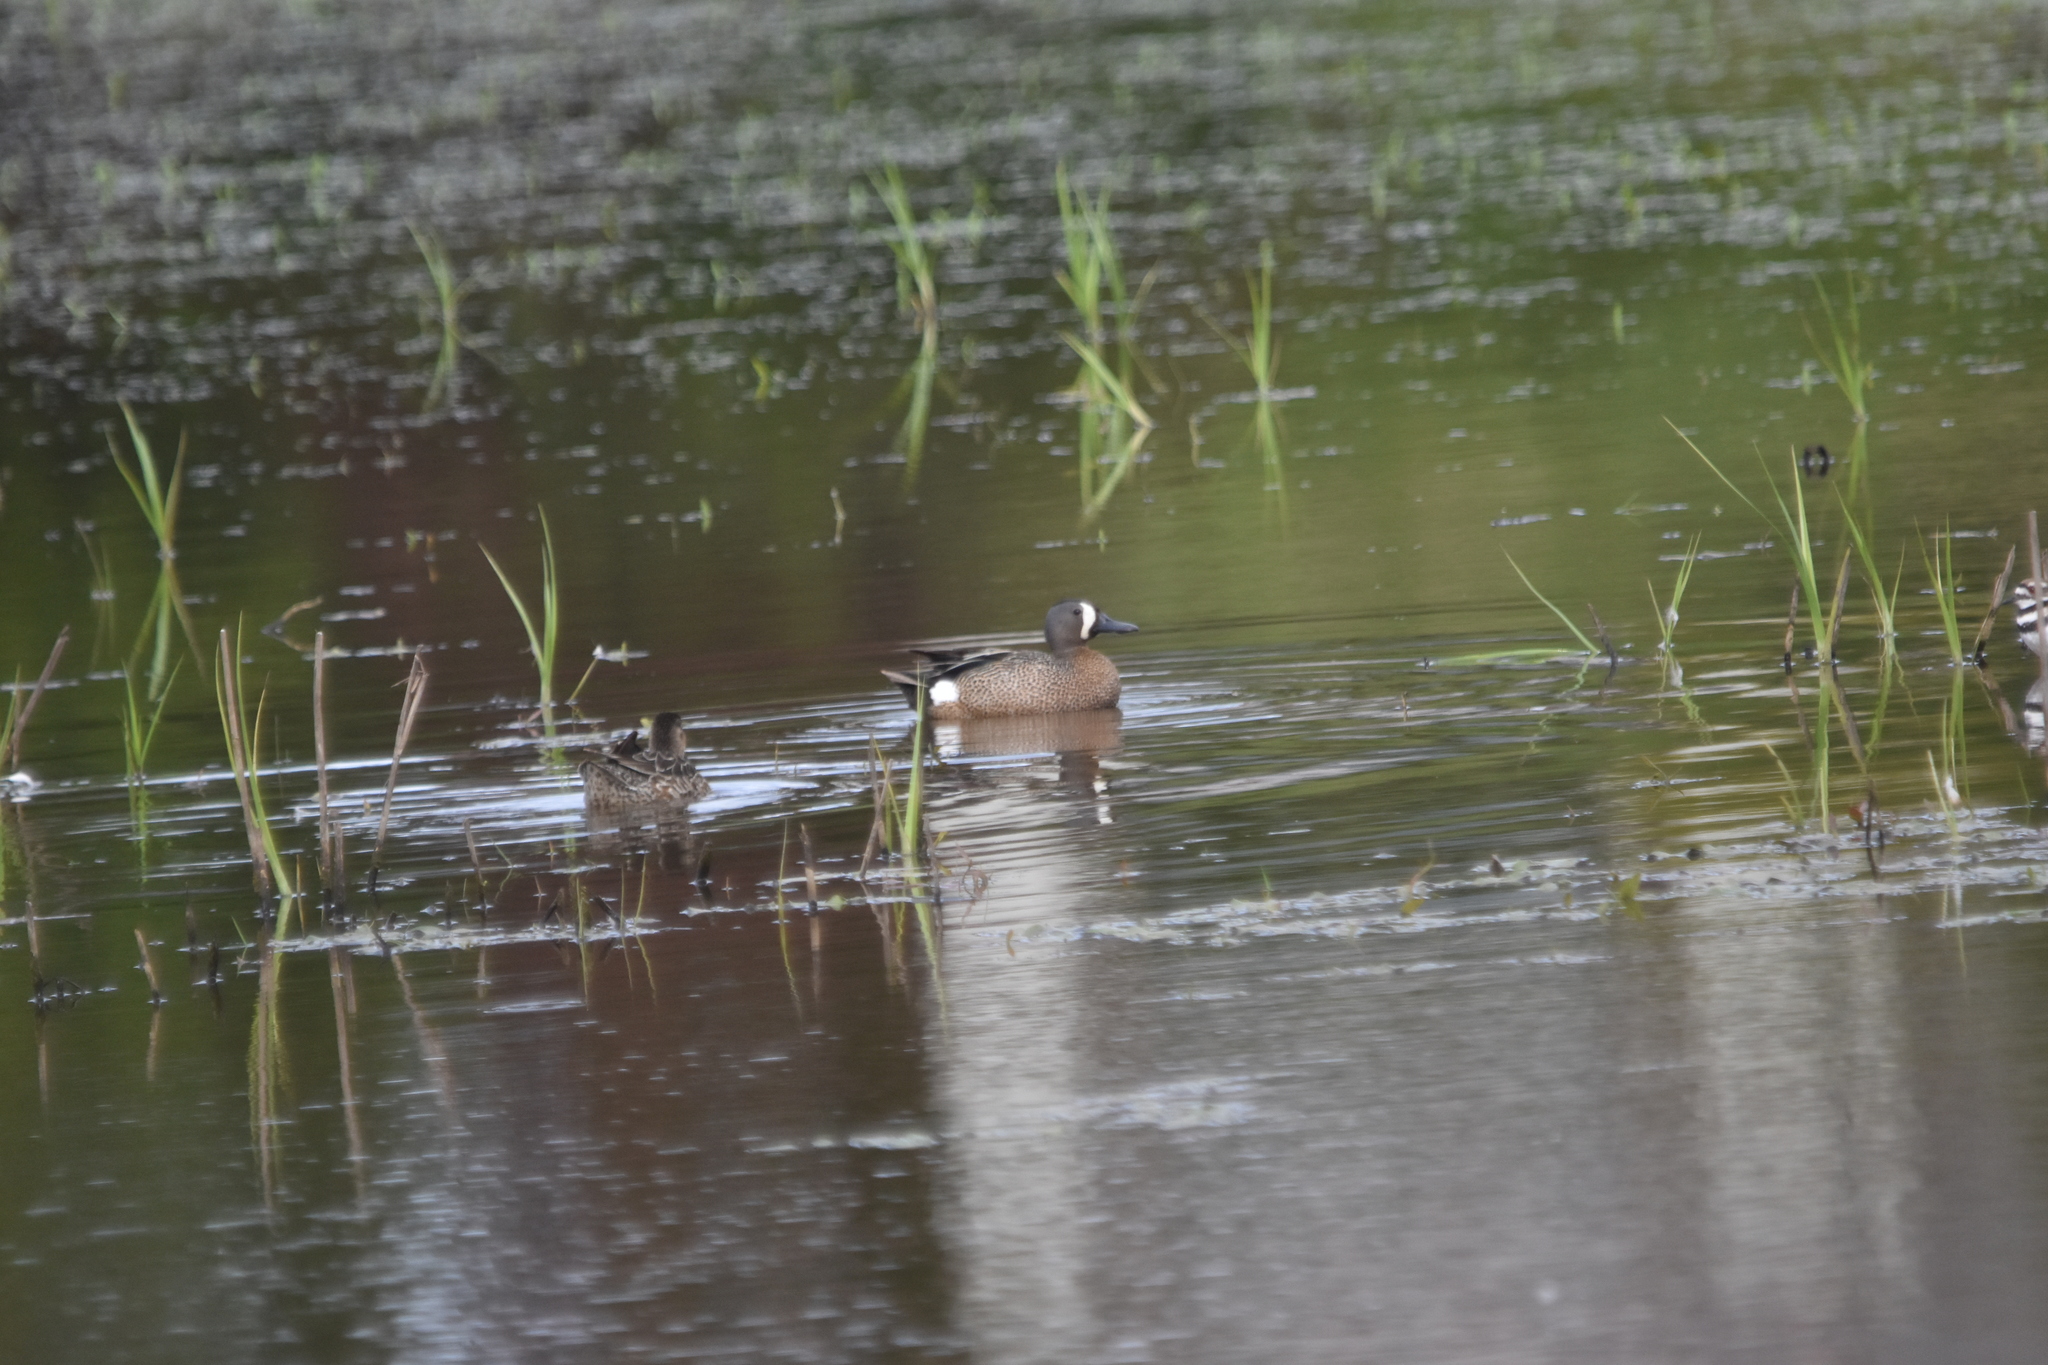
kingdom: Animalia
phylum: Chordata
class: Aves
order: Anseriformes
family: Anatidae
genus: Spatula
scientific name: Spatula discors
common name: Blue-winged teal
